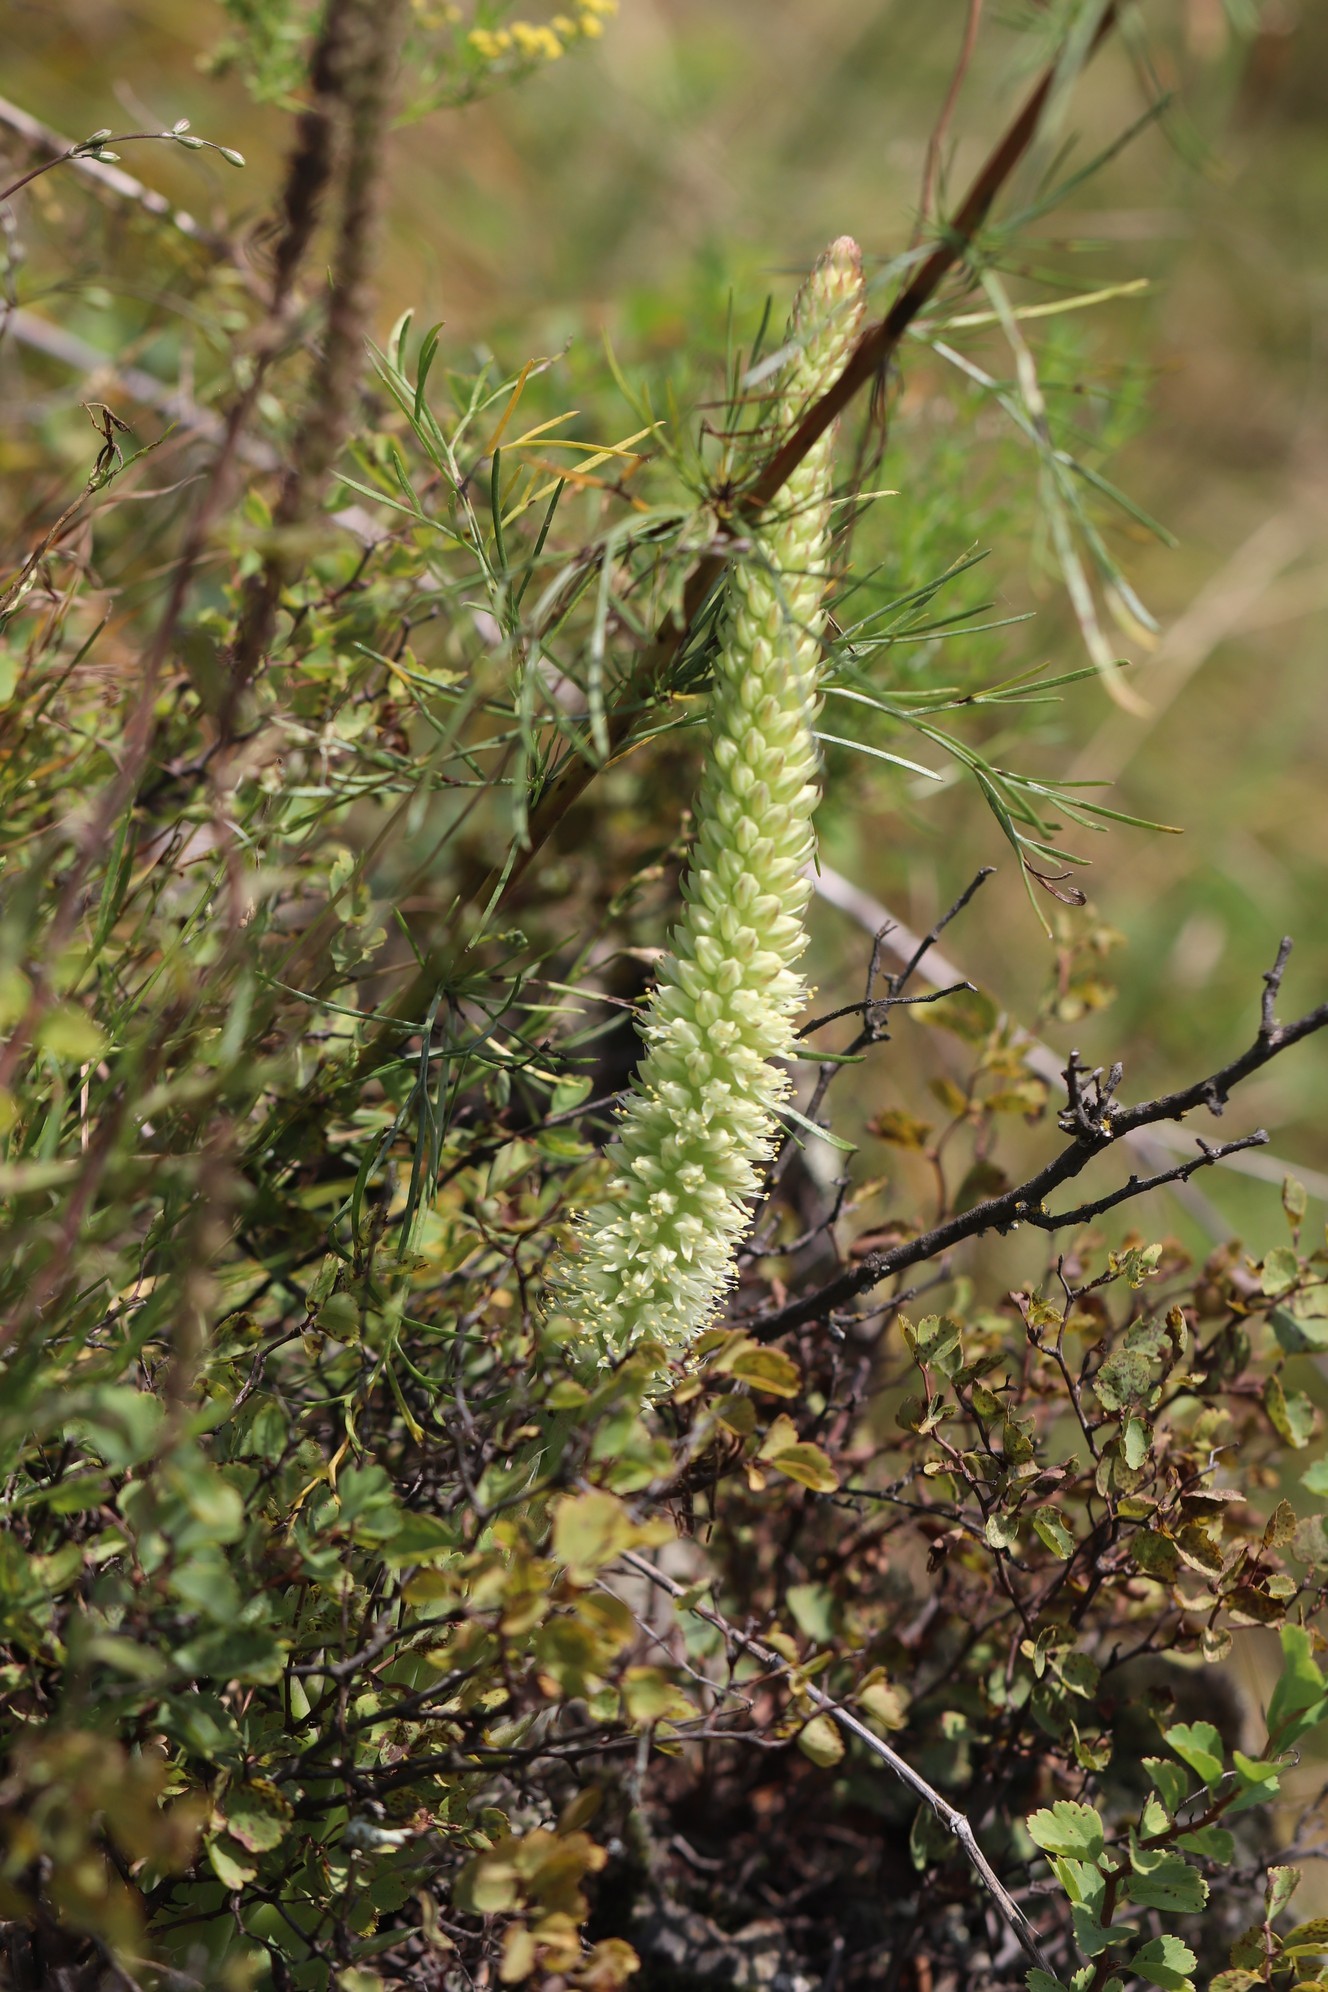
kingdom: Plantae
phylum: Tracheophyta
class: Magnoliopsida
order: Saxifragales
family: Crassulaceae
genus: Orostachys
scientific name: Orostachys spinosa
